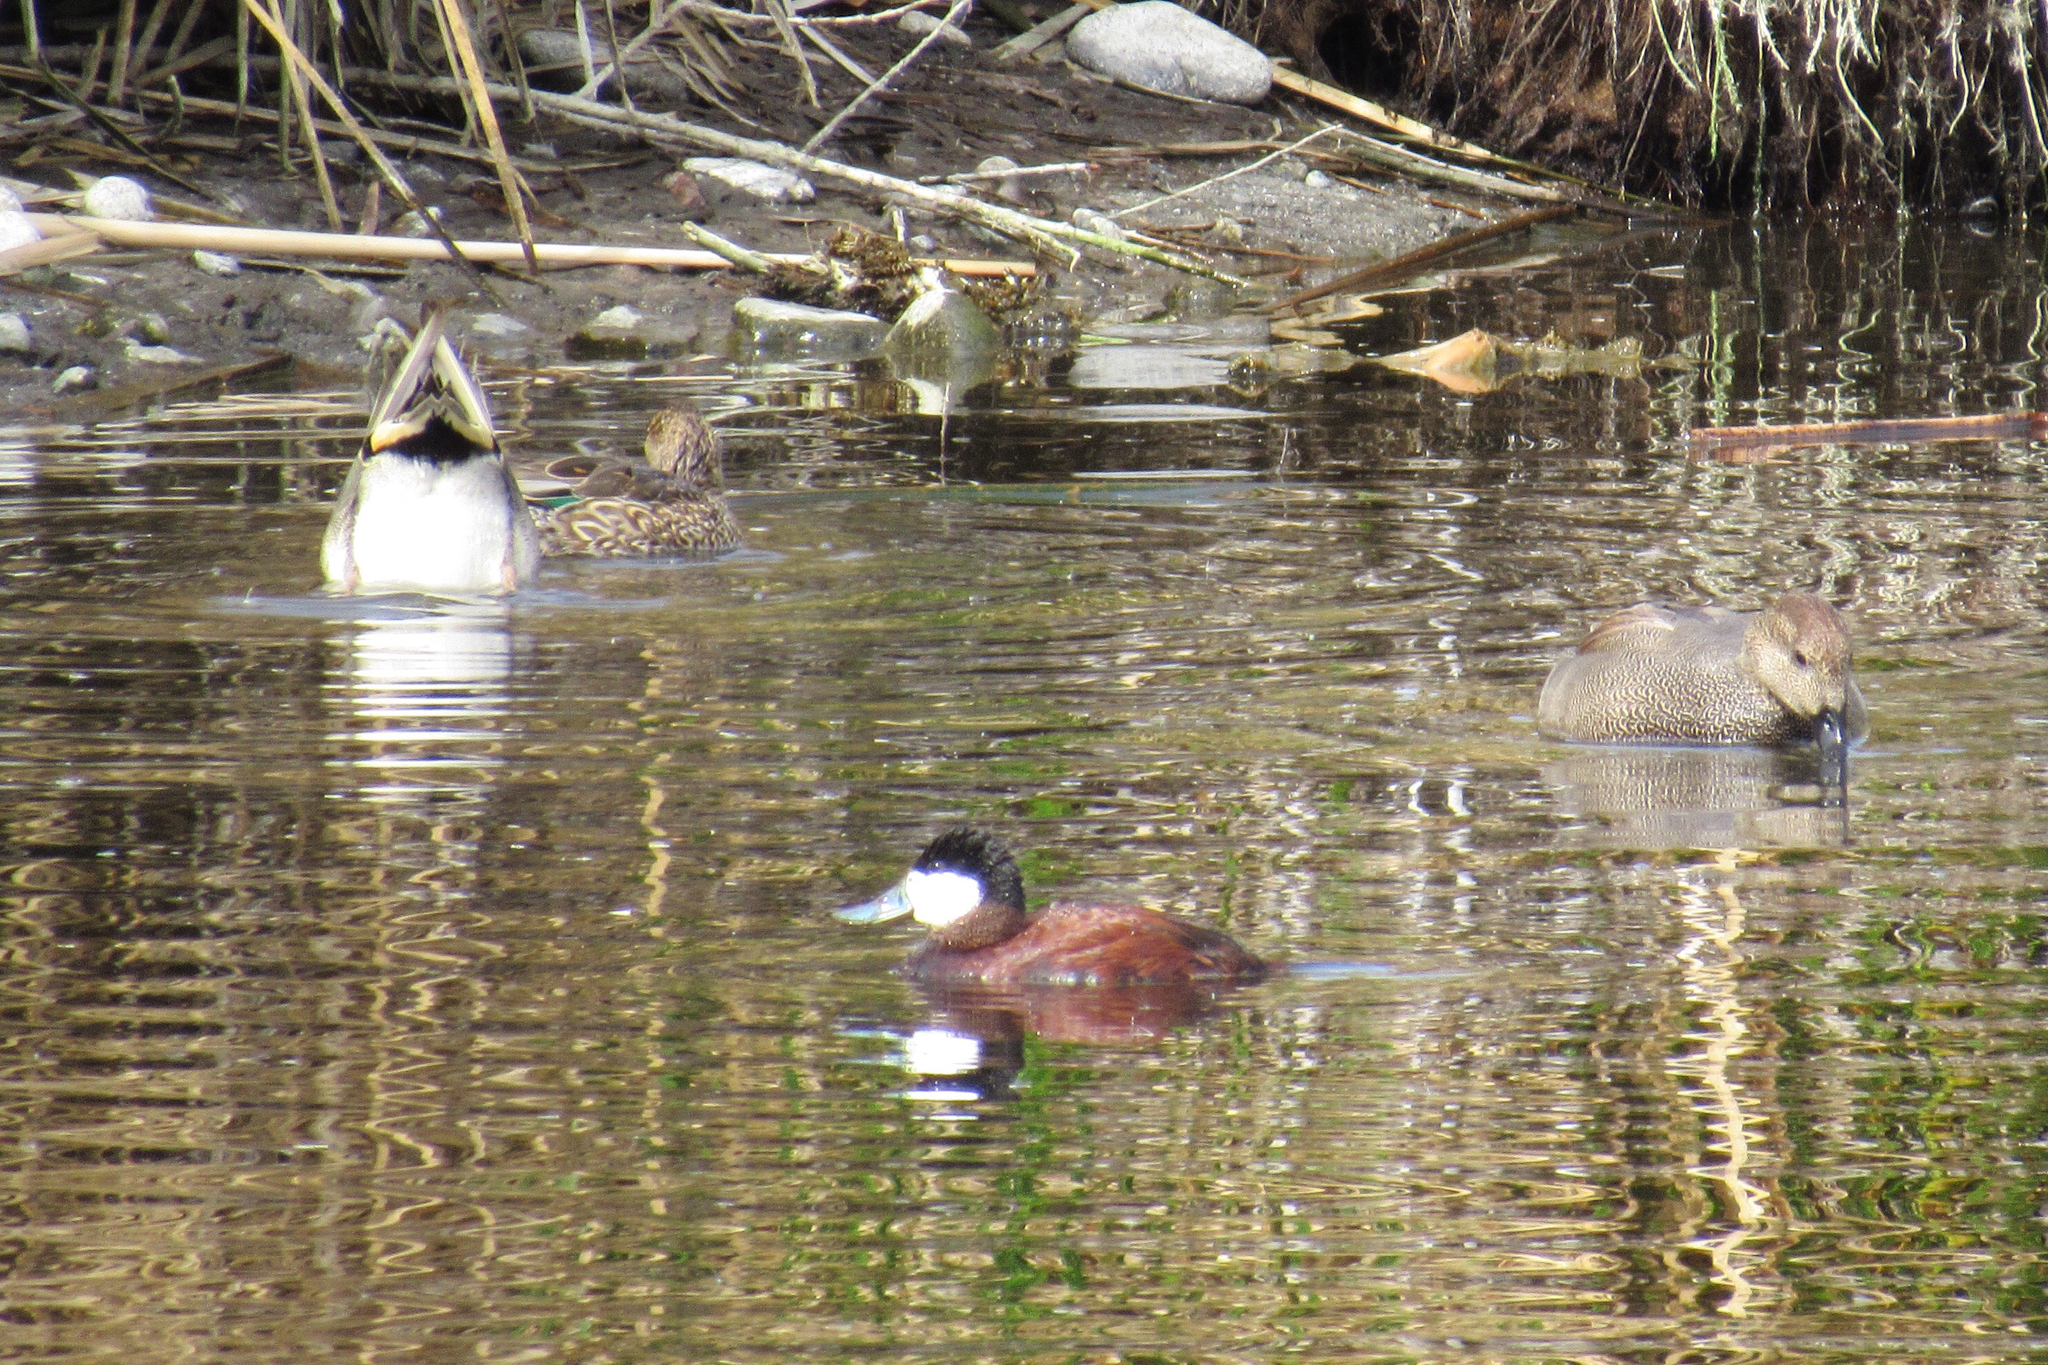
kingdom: Animalia
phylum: Chordata
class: Aves
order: Anseriformes
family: Anatidae
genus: Oxyura
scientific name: Oxyura jamaicensis
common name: Ruddy duck
